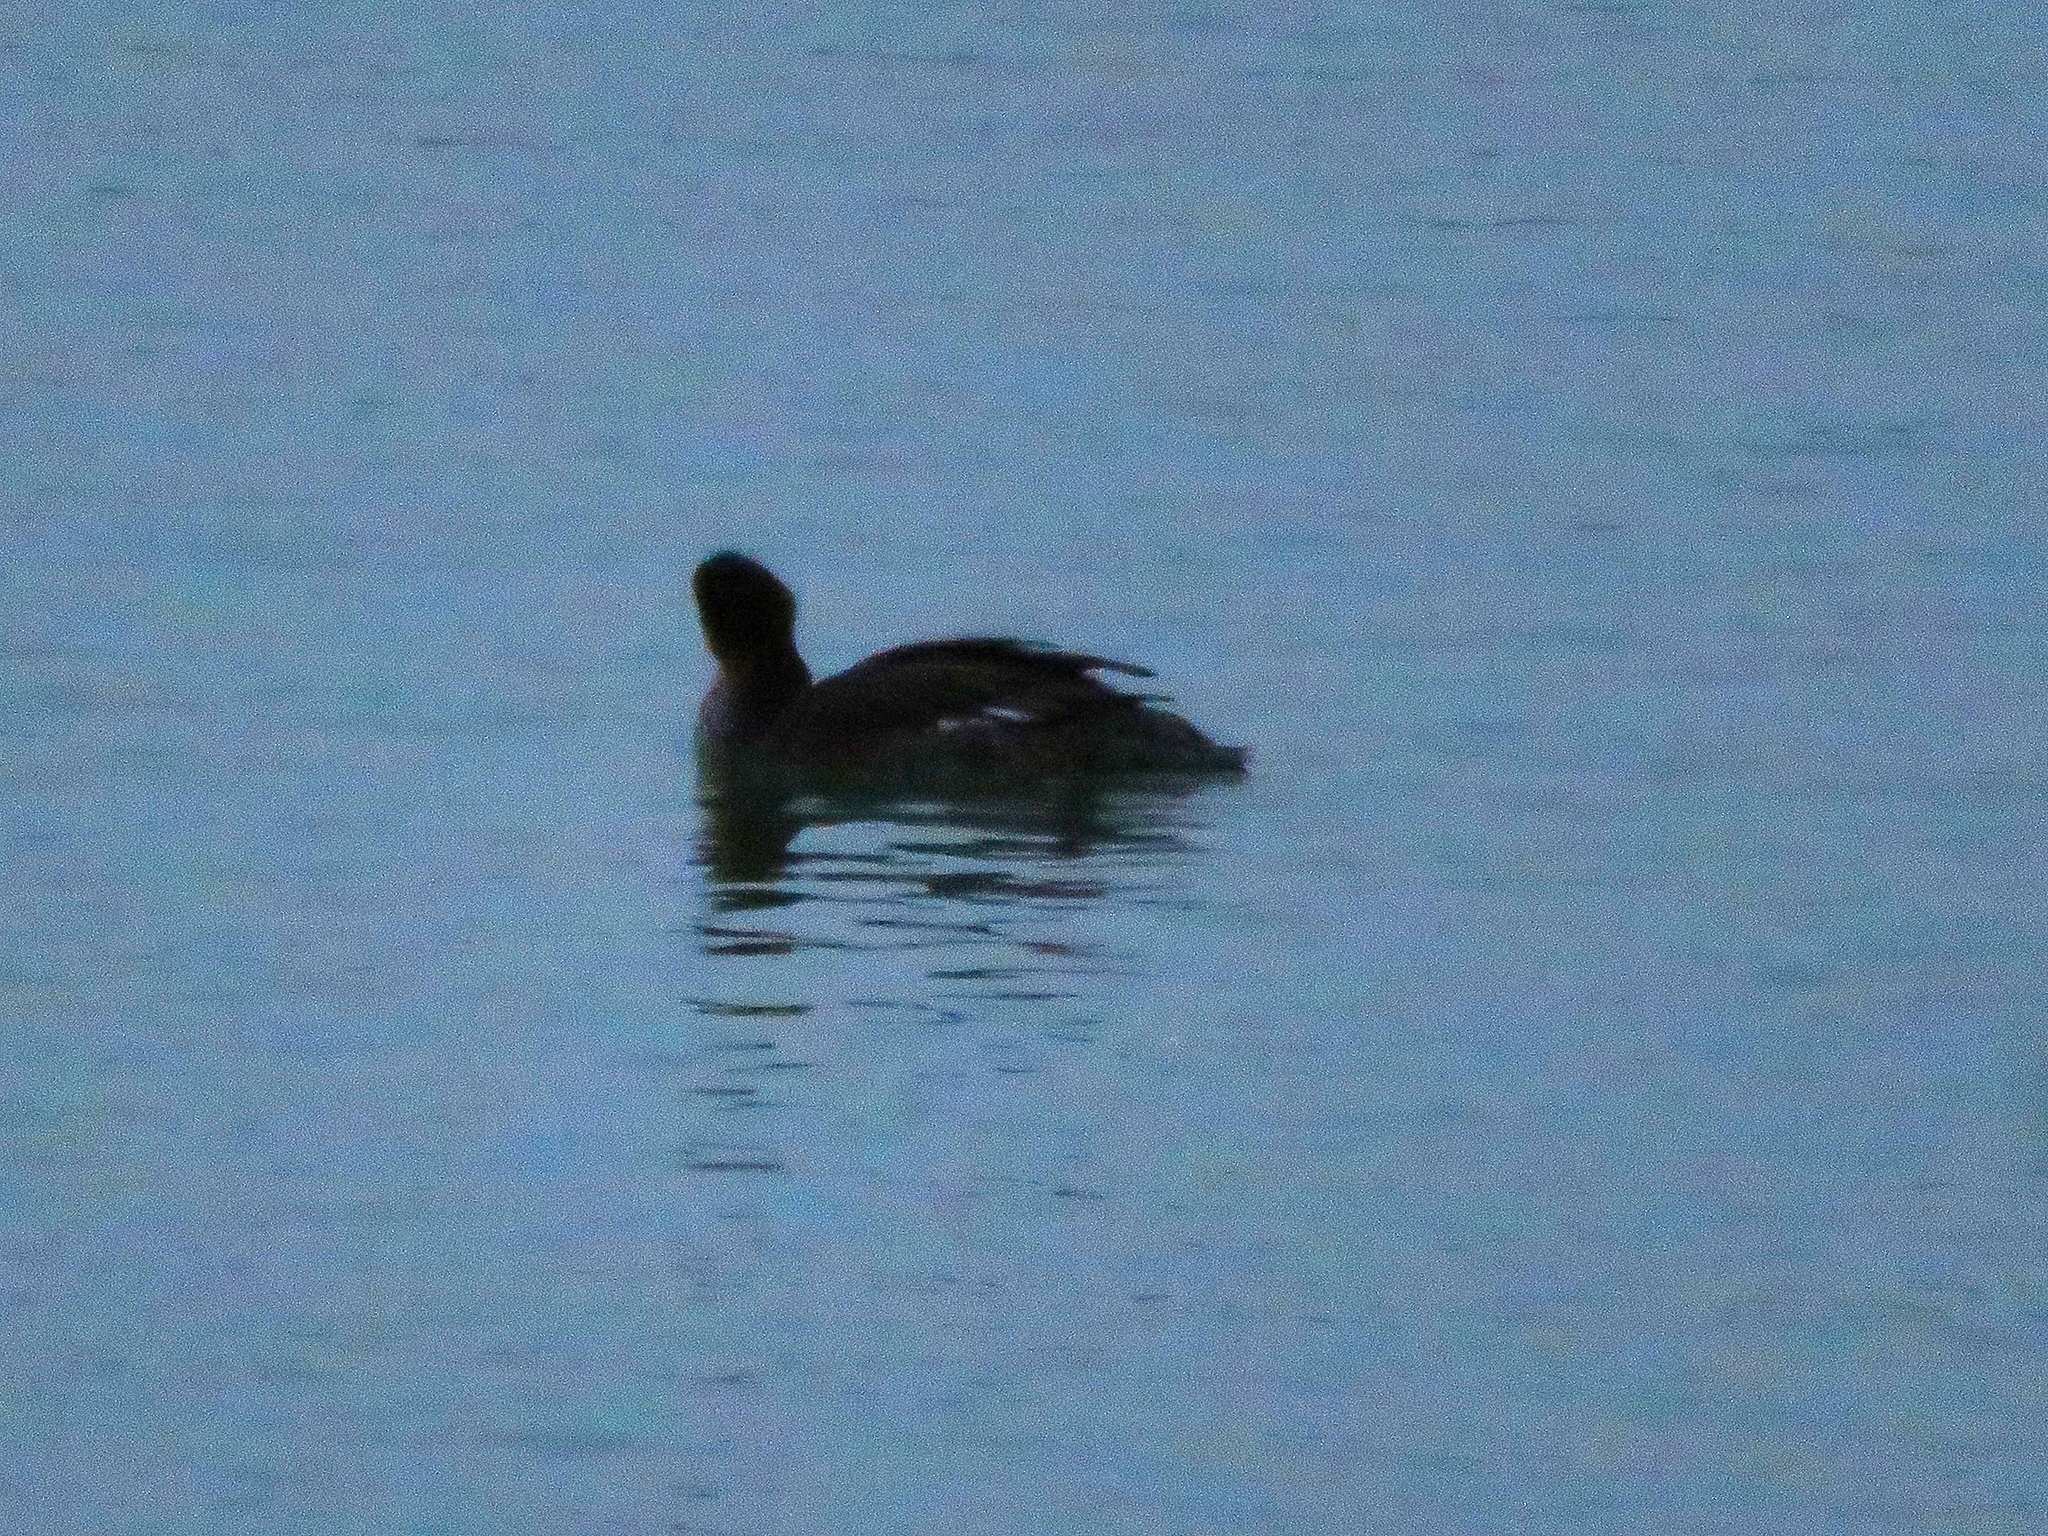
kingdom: Animalia
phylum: Chordata
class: Aves
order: Anseriformes
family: Anatidae
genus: Mergus
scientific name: Mergus serrator
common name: Red-breasted merganser
